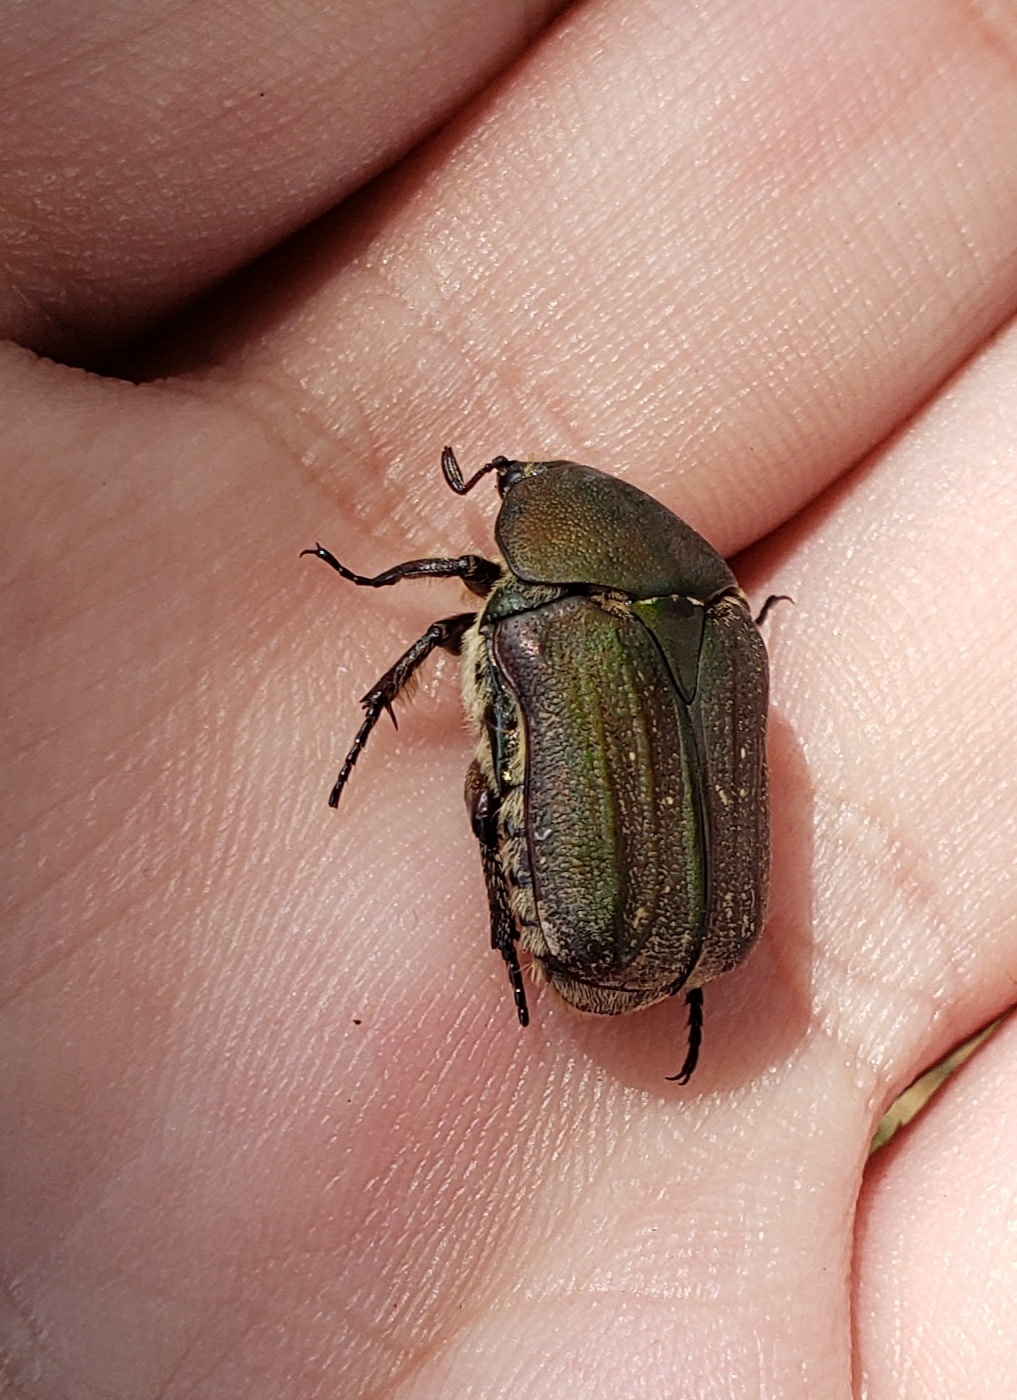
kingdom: Animalia
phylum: Arthropoda
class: Insecta
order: Coleoptera
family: Scarabaeidae
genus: Euphoria
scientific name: Euphoria herbacea
